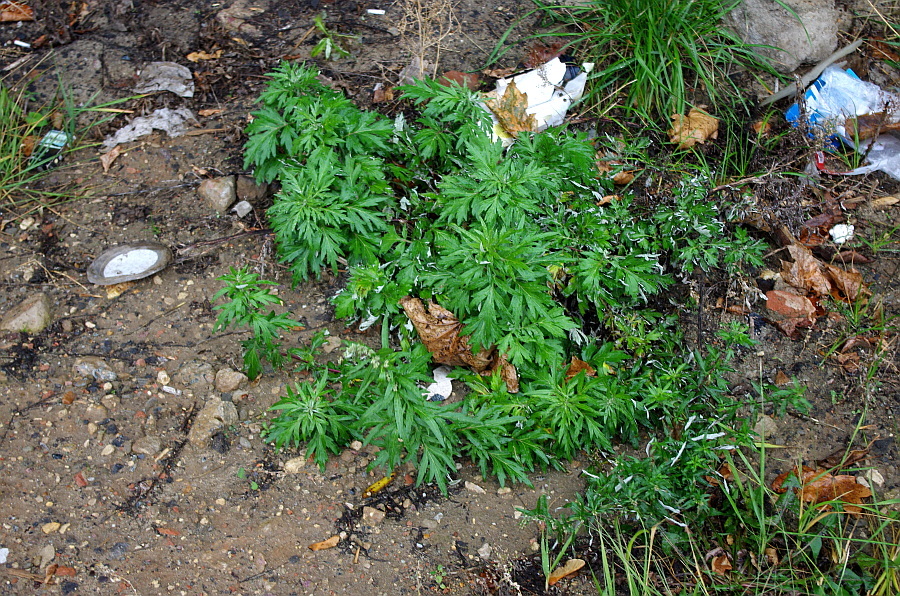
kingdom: Plantae
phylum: Tracheophyta
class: Magnoliopsida
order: Asterales
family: Asteraceae
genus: Artemisia
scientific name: Artemisia vulgaris
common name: Mugwort
